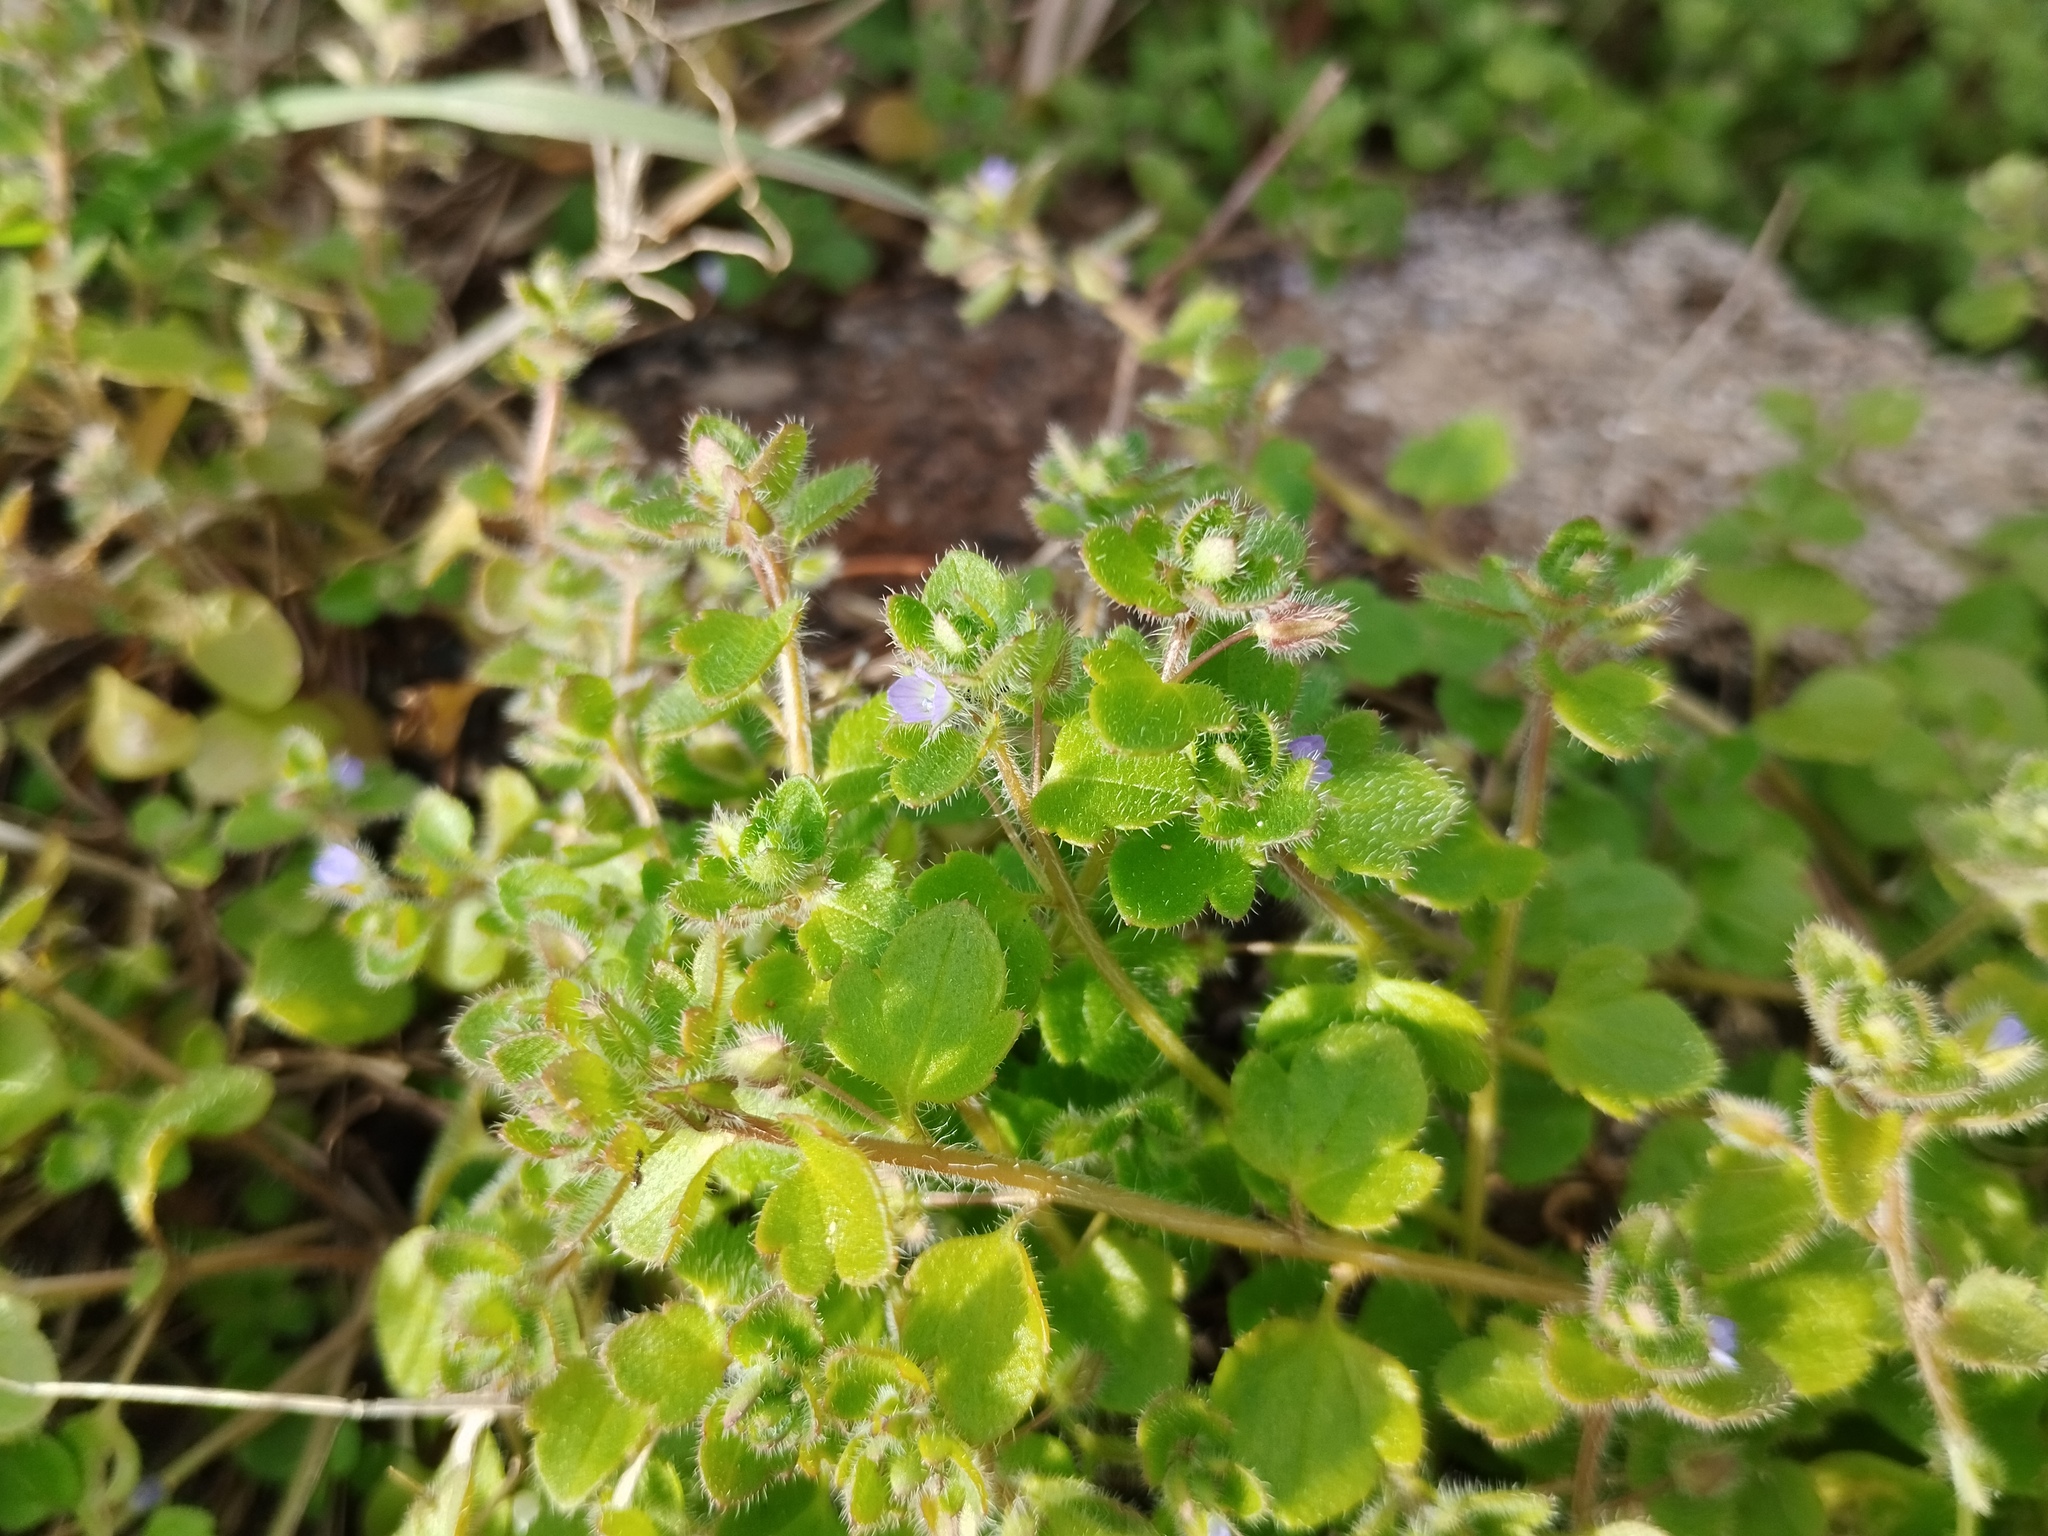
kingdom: Plantae
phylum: Tracheophyta
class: Magnoliopsida
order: Lamiales
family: Plantaginaceae
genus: Veronica
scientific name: Veronica hederifolia
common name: Ivy-leaved speedwell
